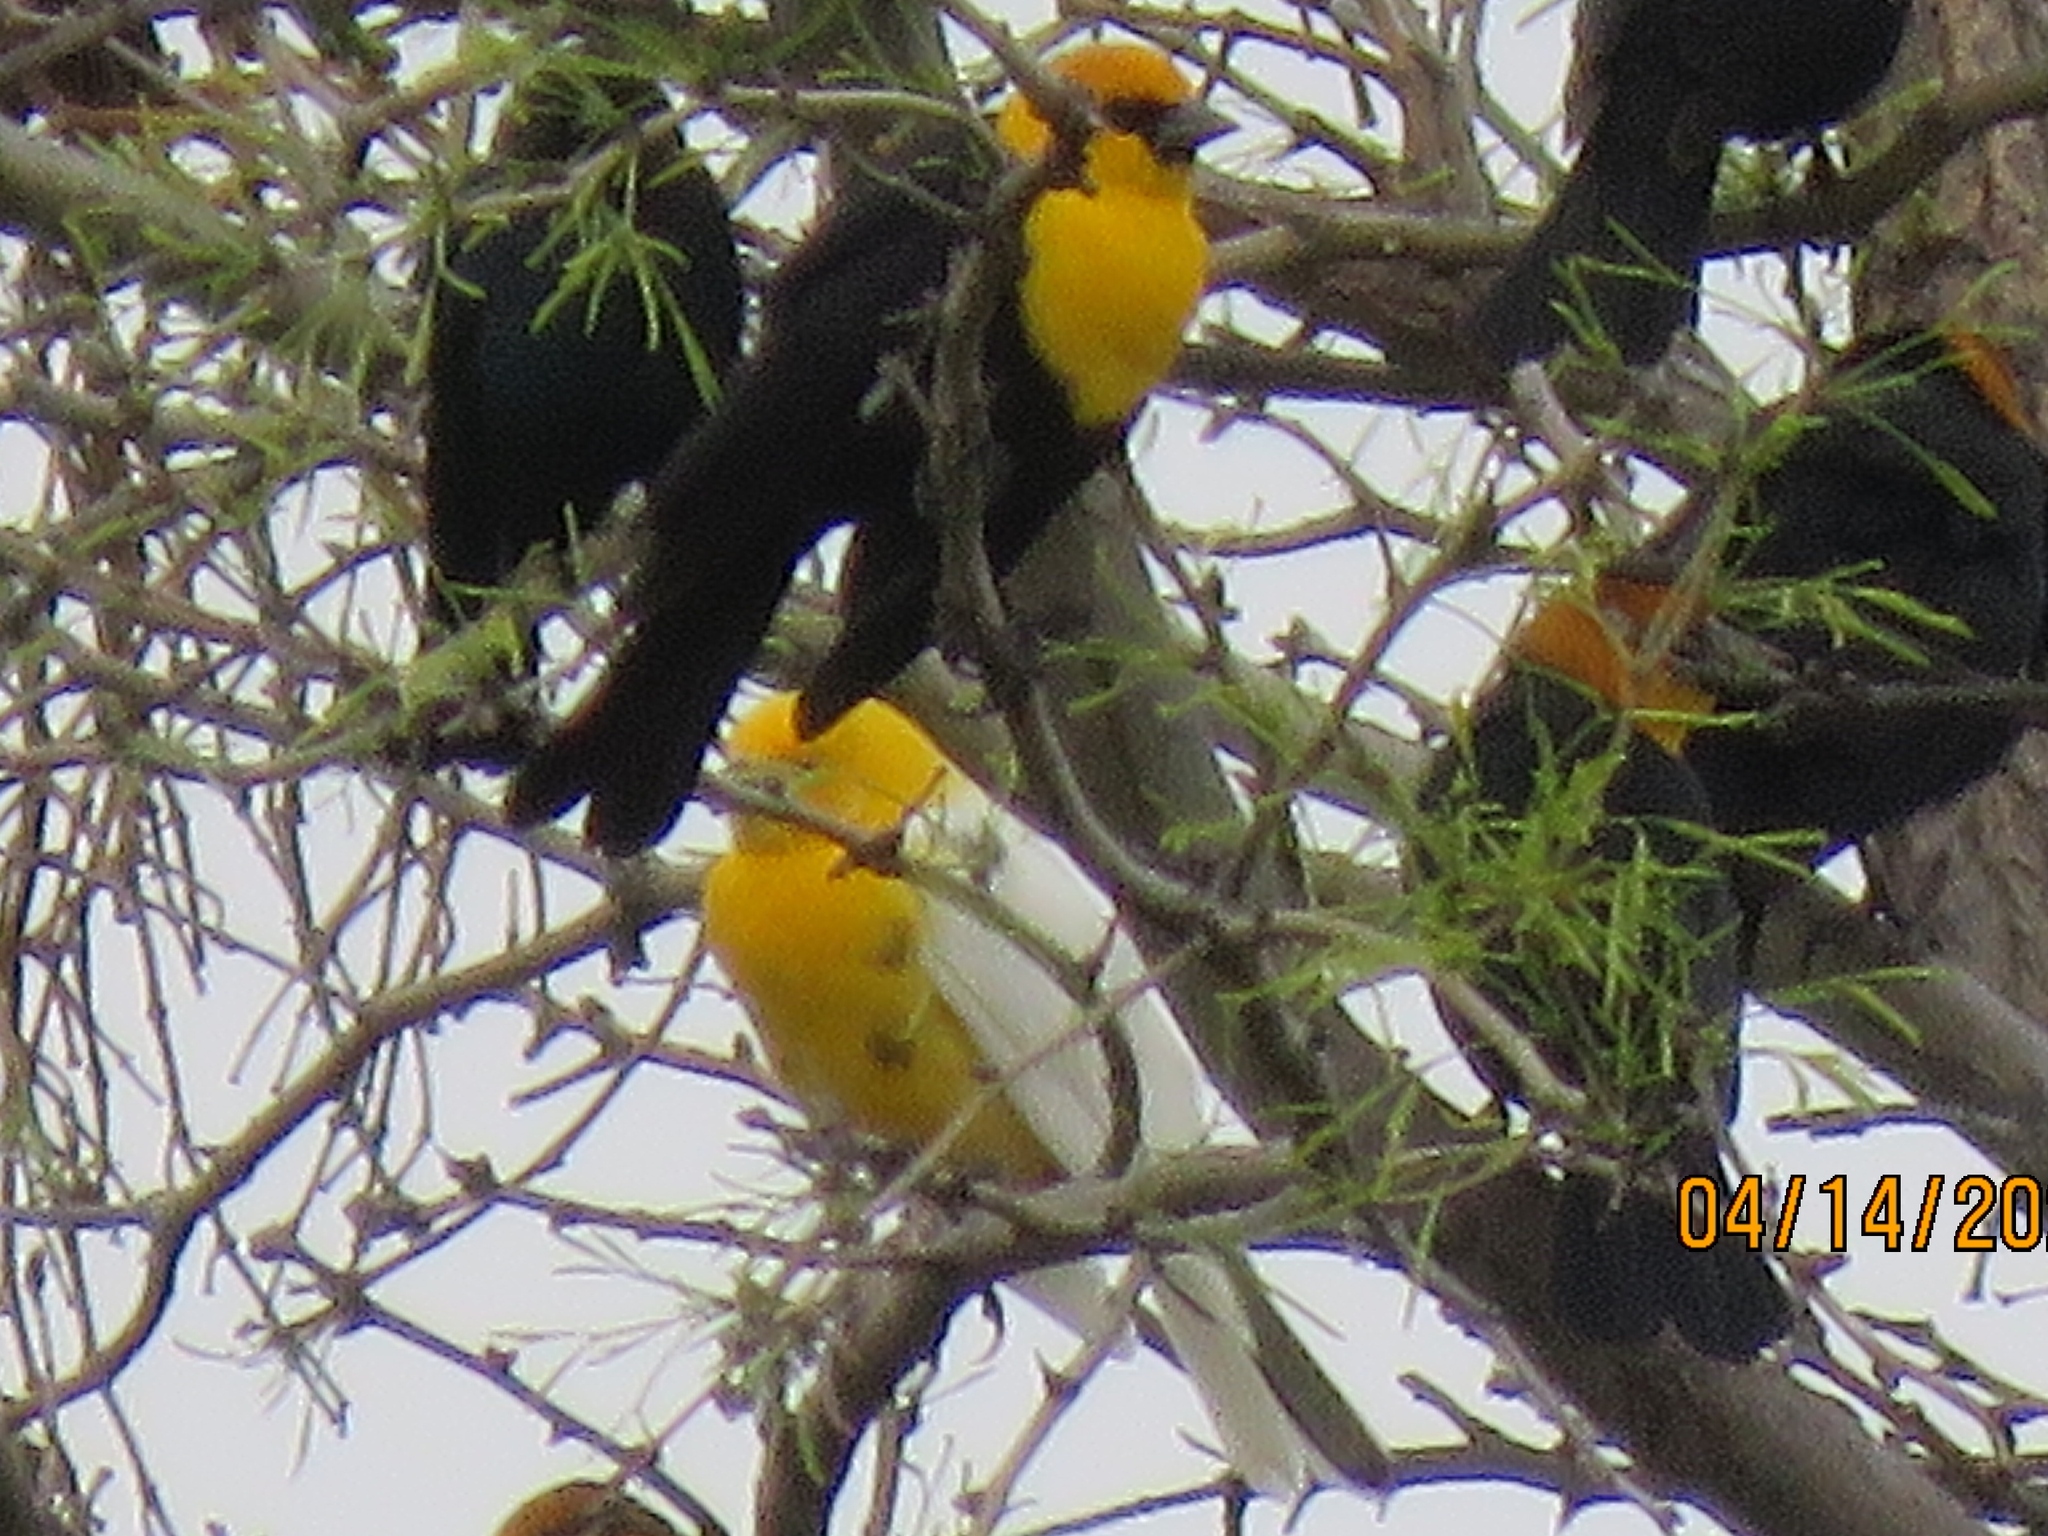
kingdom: Animalia
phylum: Chordata
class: Aves
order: Passeriformes
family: Icteridae
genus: Xanthocephalus
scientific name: Xanthocephalus xanthocephalus
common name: Yellow-headed blackbird
